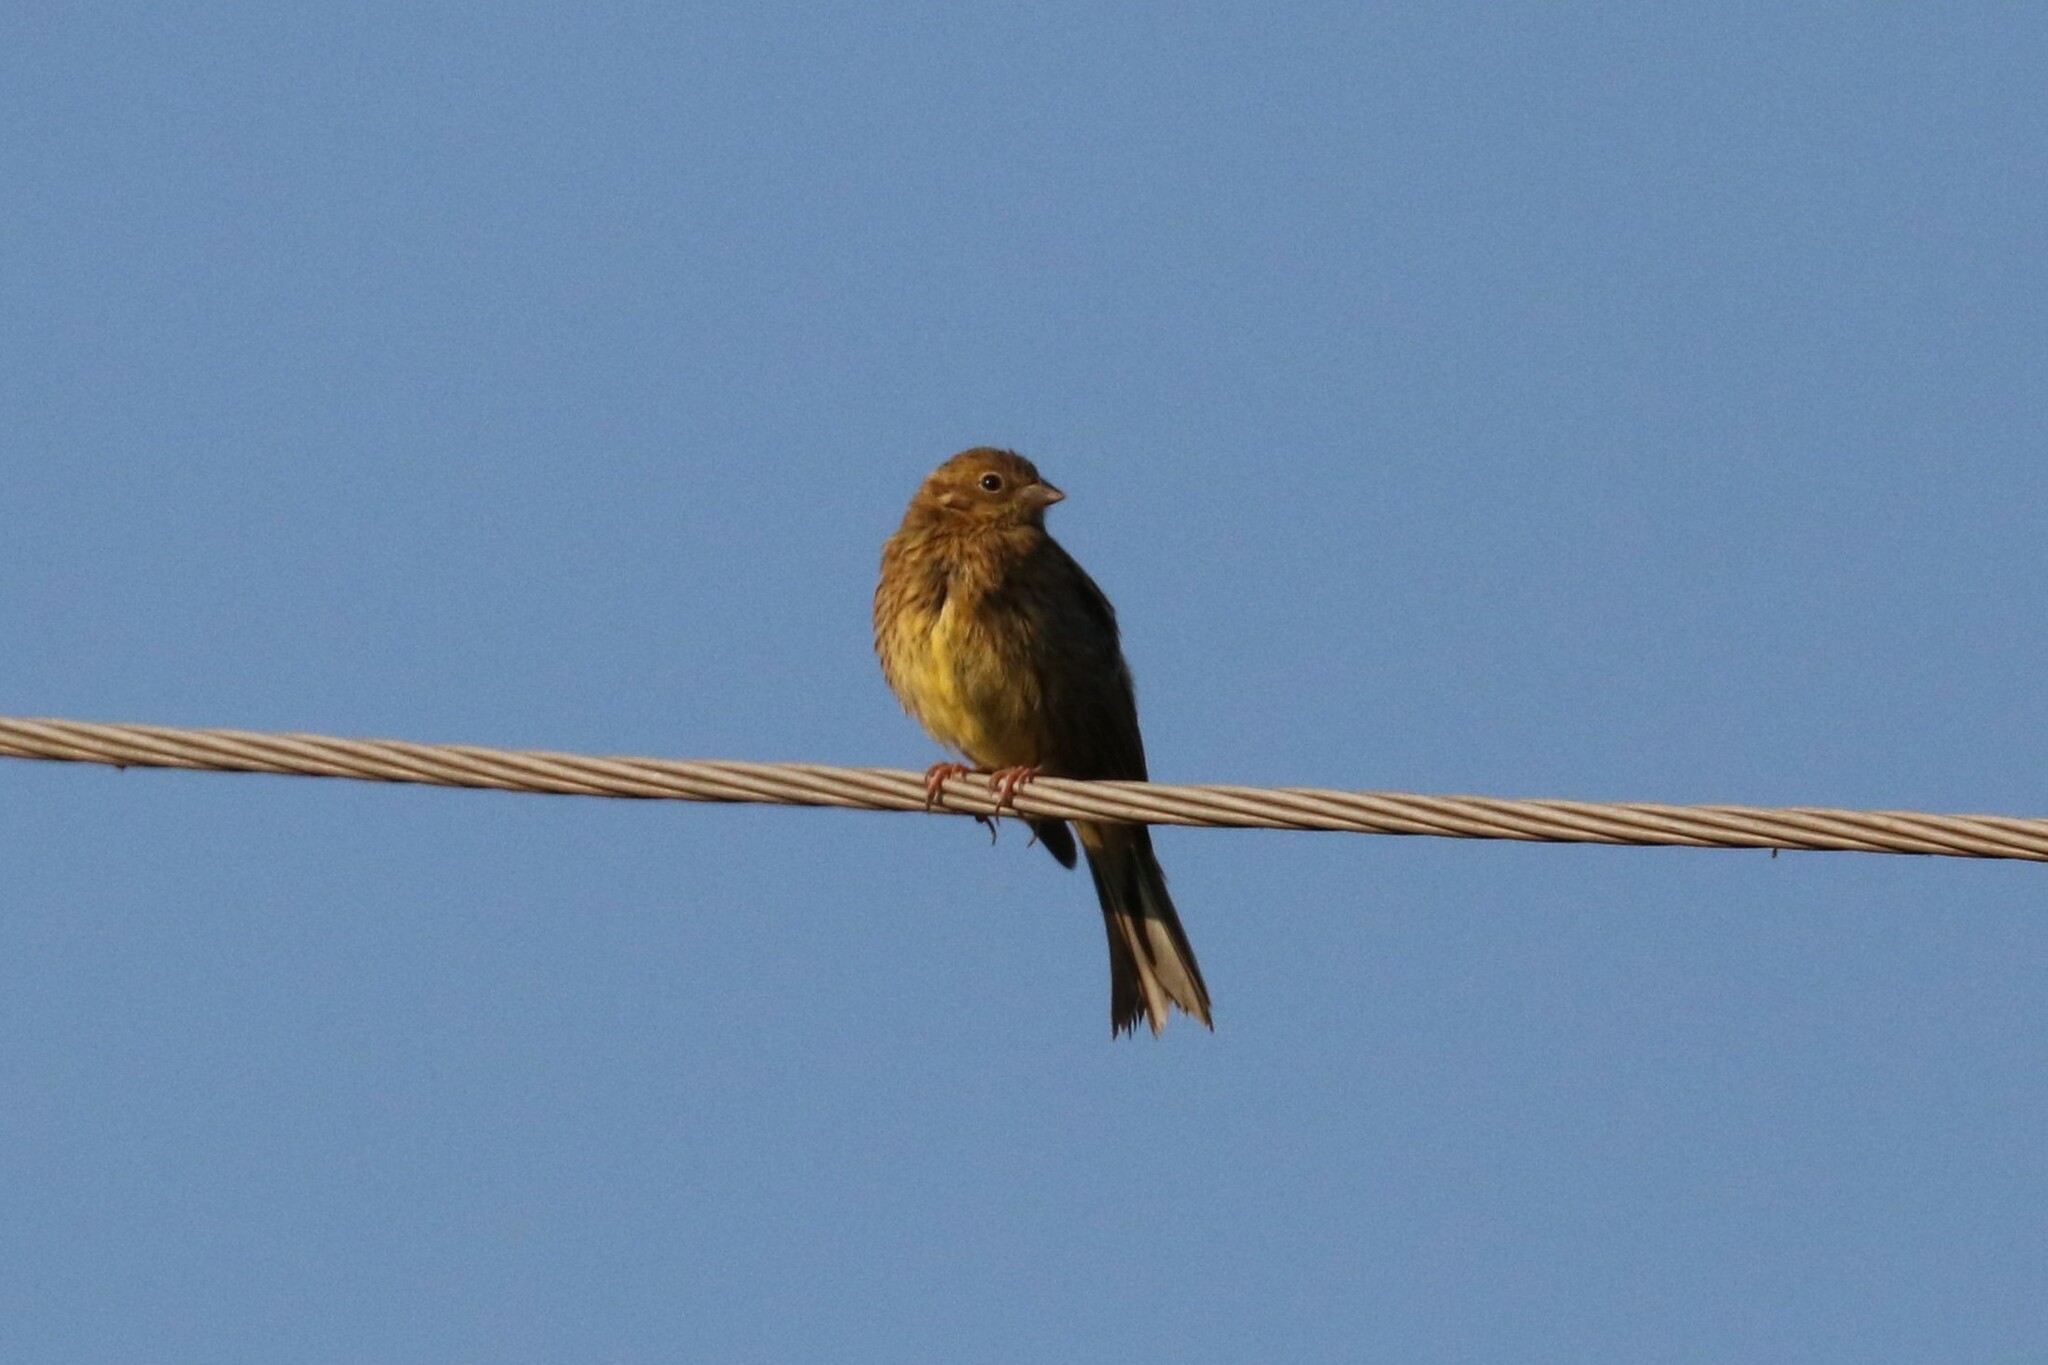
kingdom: Animalia
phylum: Chordata
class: Aves
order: Passeriformes
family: Emberizidae
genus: Emberiza
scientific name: Emberiza citrinella
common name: Yellowhammer
